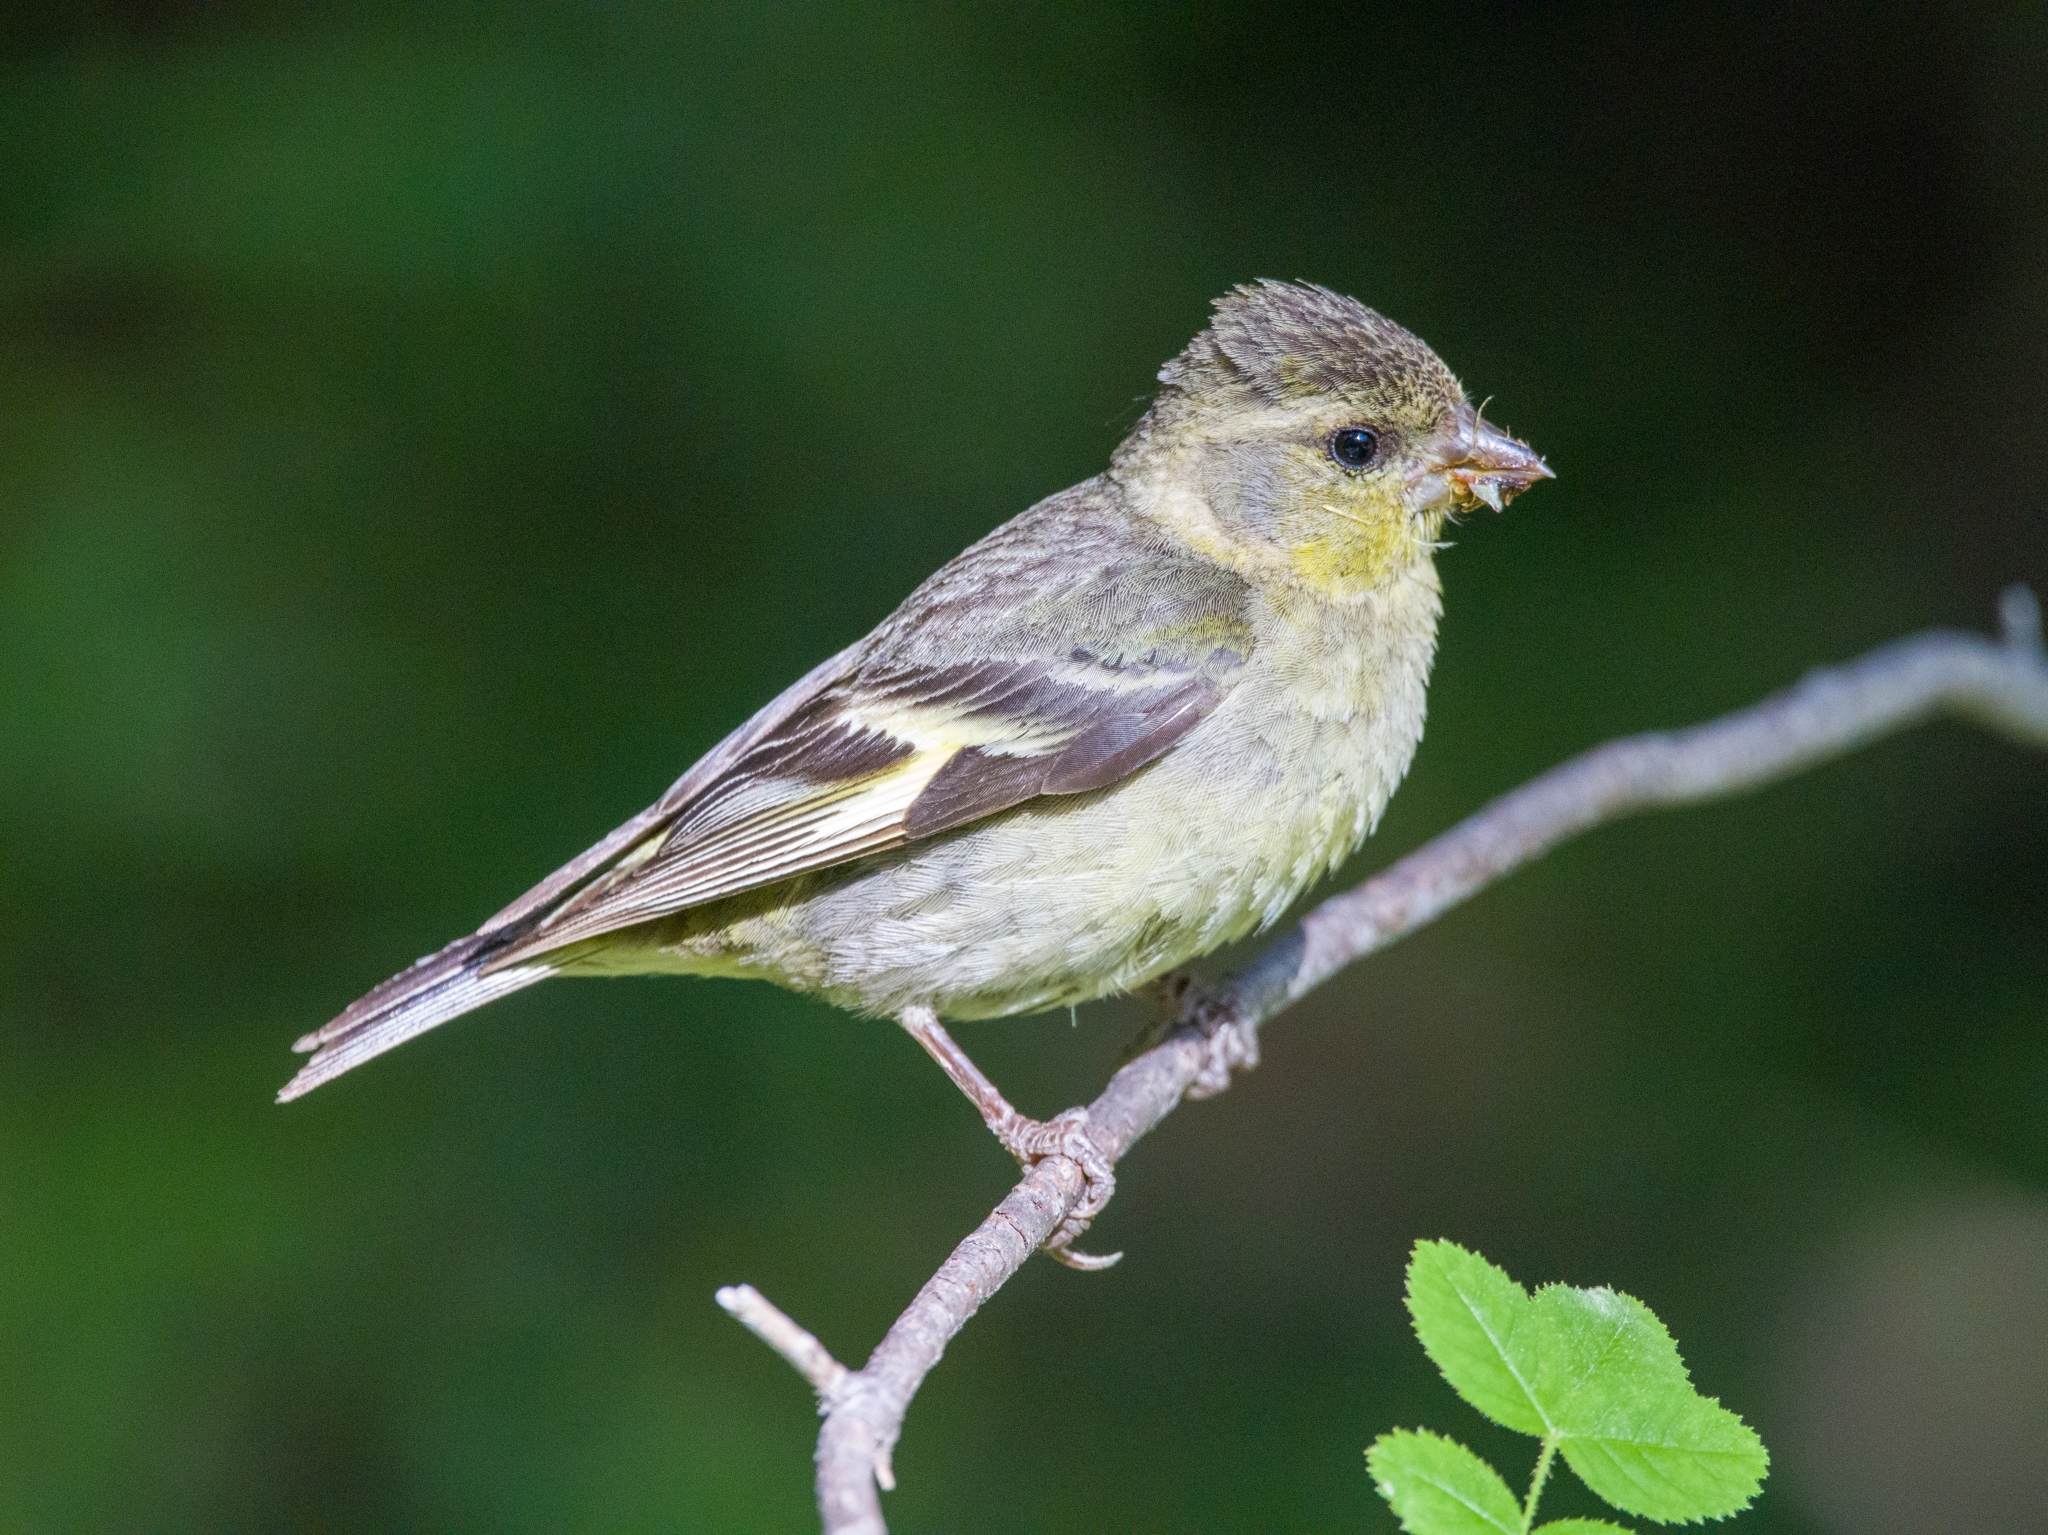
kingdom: Animalia
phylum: Chordata
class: Aves
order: Passeriformes
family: Fringillidae
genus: Spinus
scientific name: Spinus barbatus
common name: Black-chinned siskin
